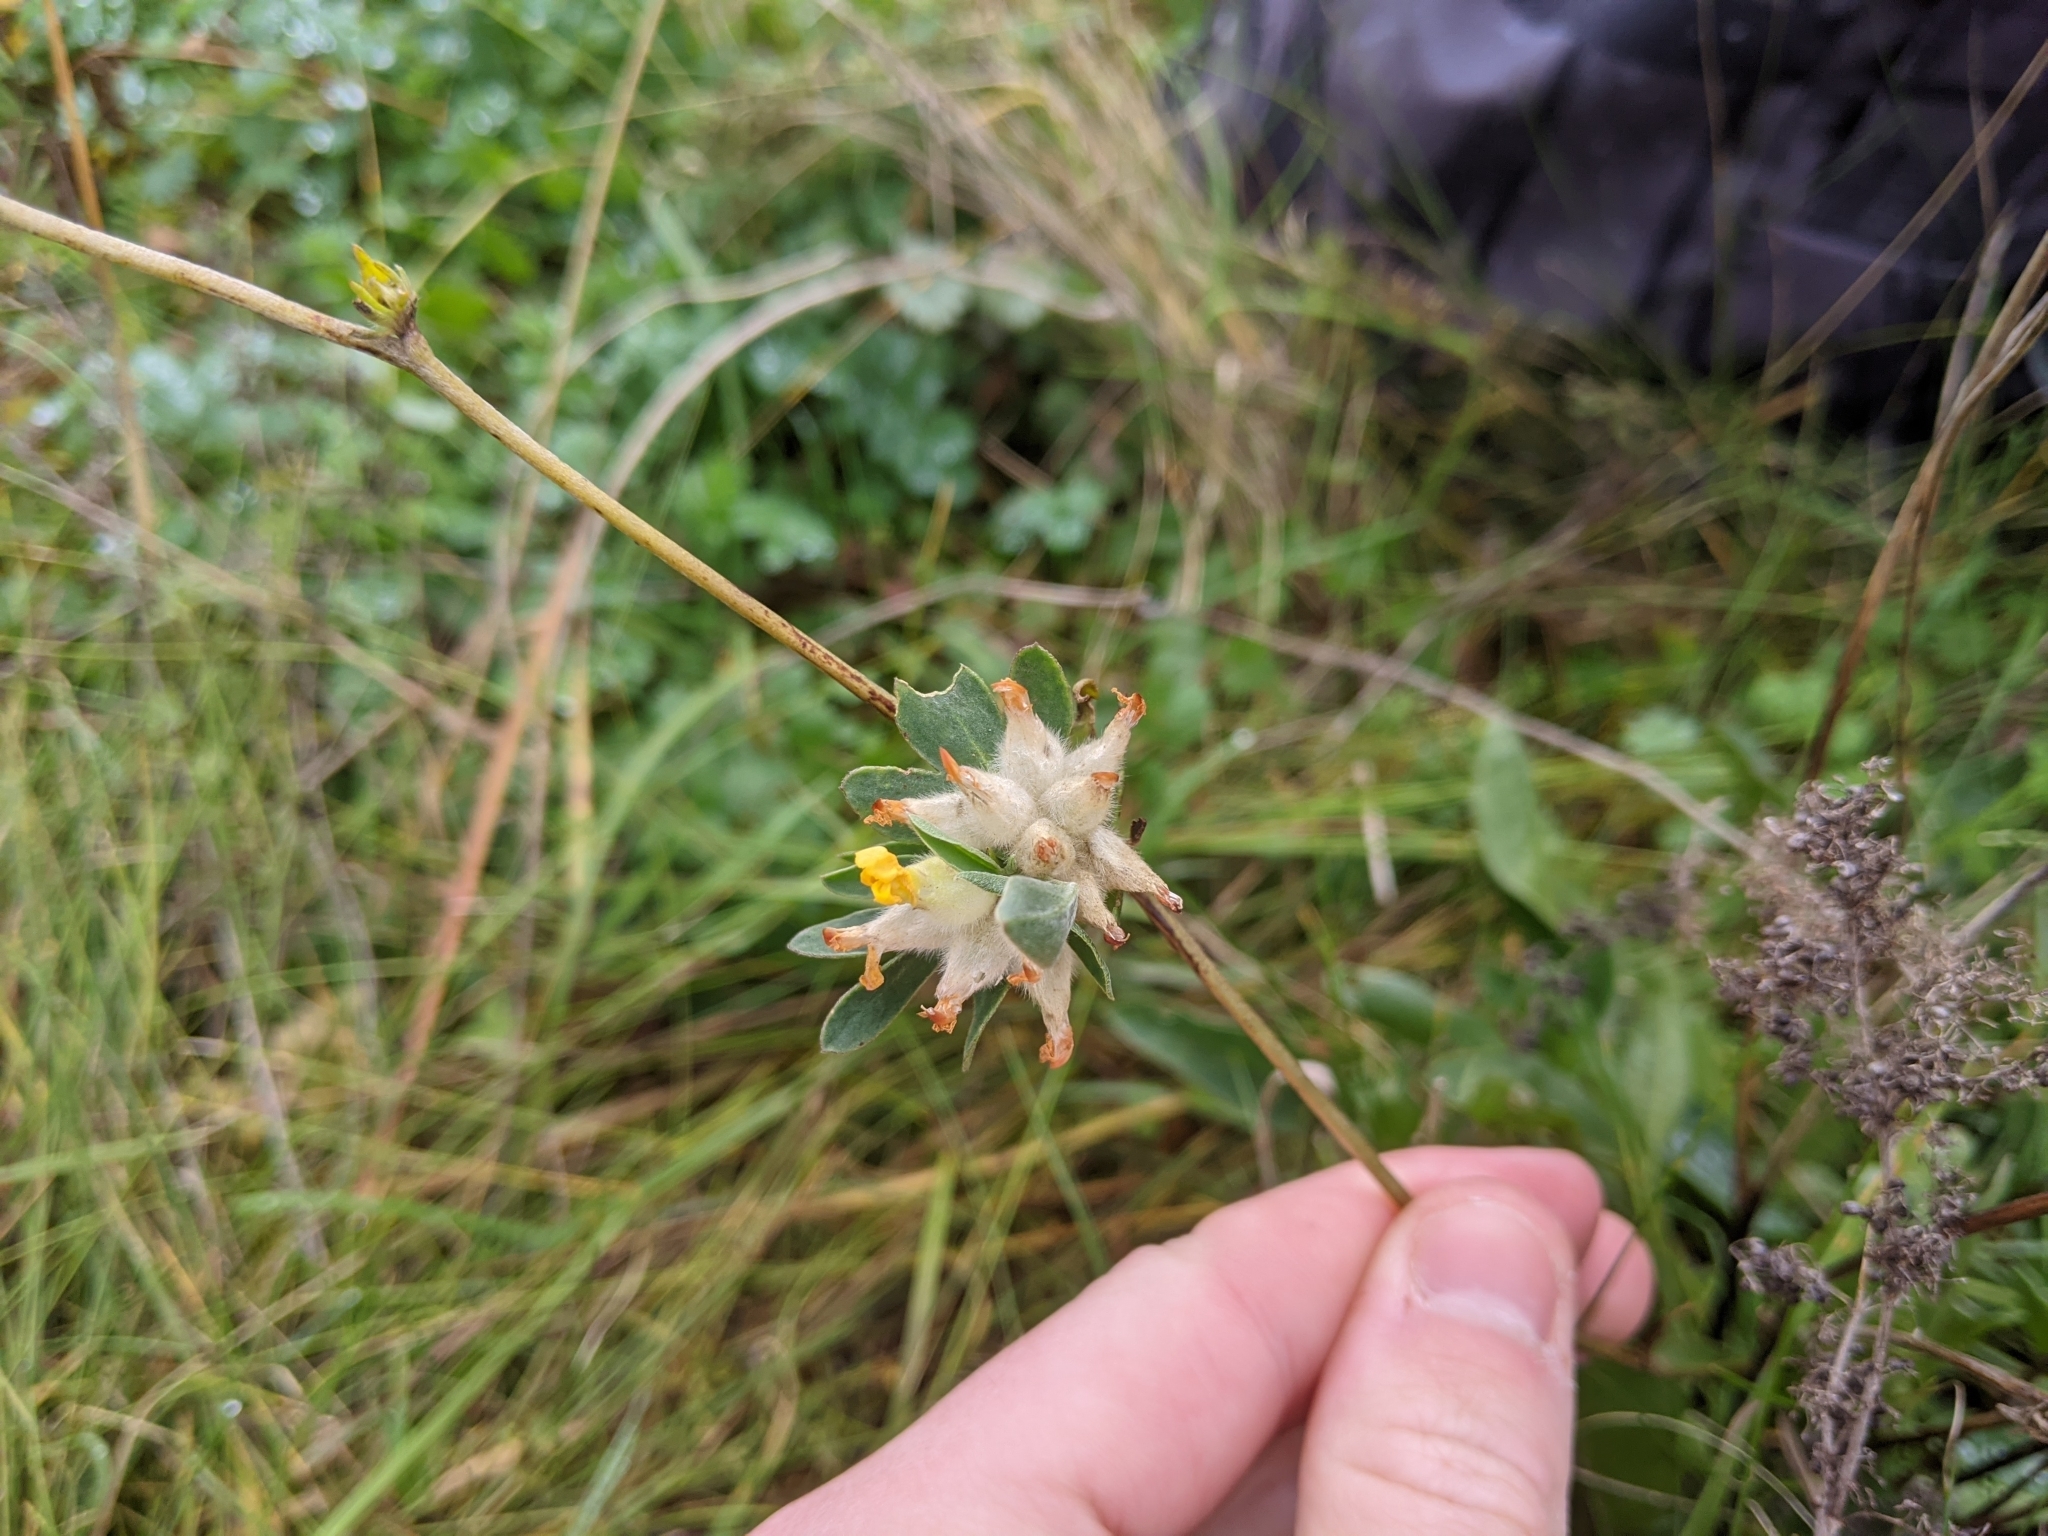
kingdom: Plantae
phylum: Tracheophyta
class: Magnoliopsida
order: Fabales
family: Fabaceae
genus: Anthyllis
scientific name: Anthyllis vulneraria
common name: Kidney vetch
